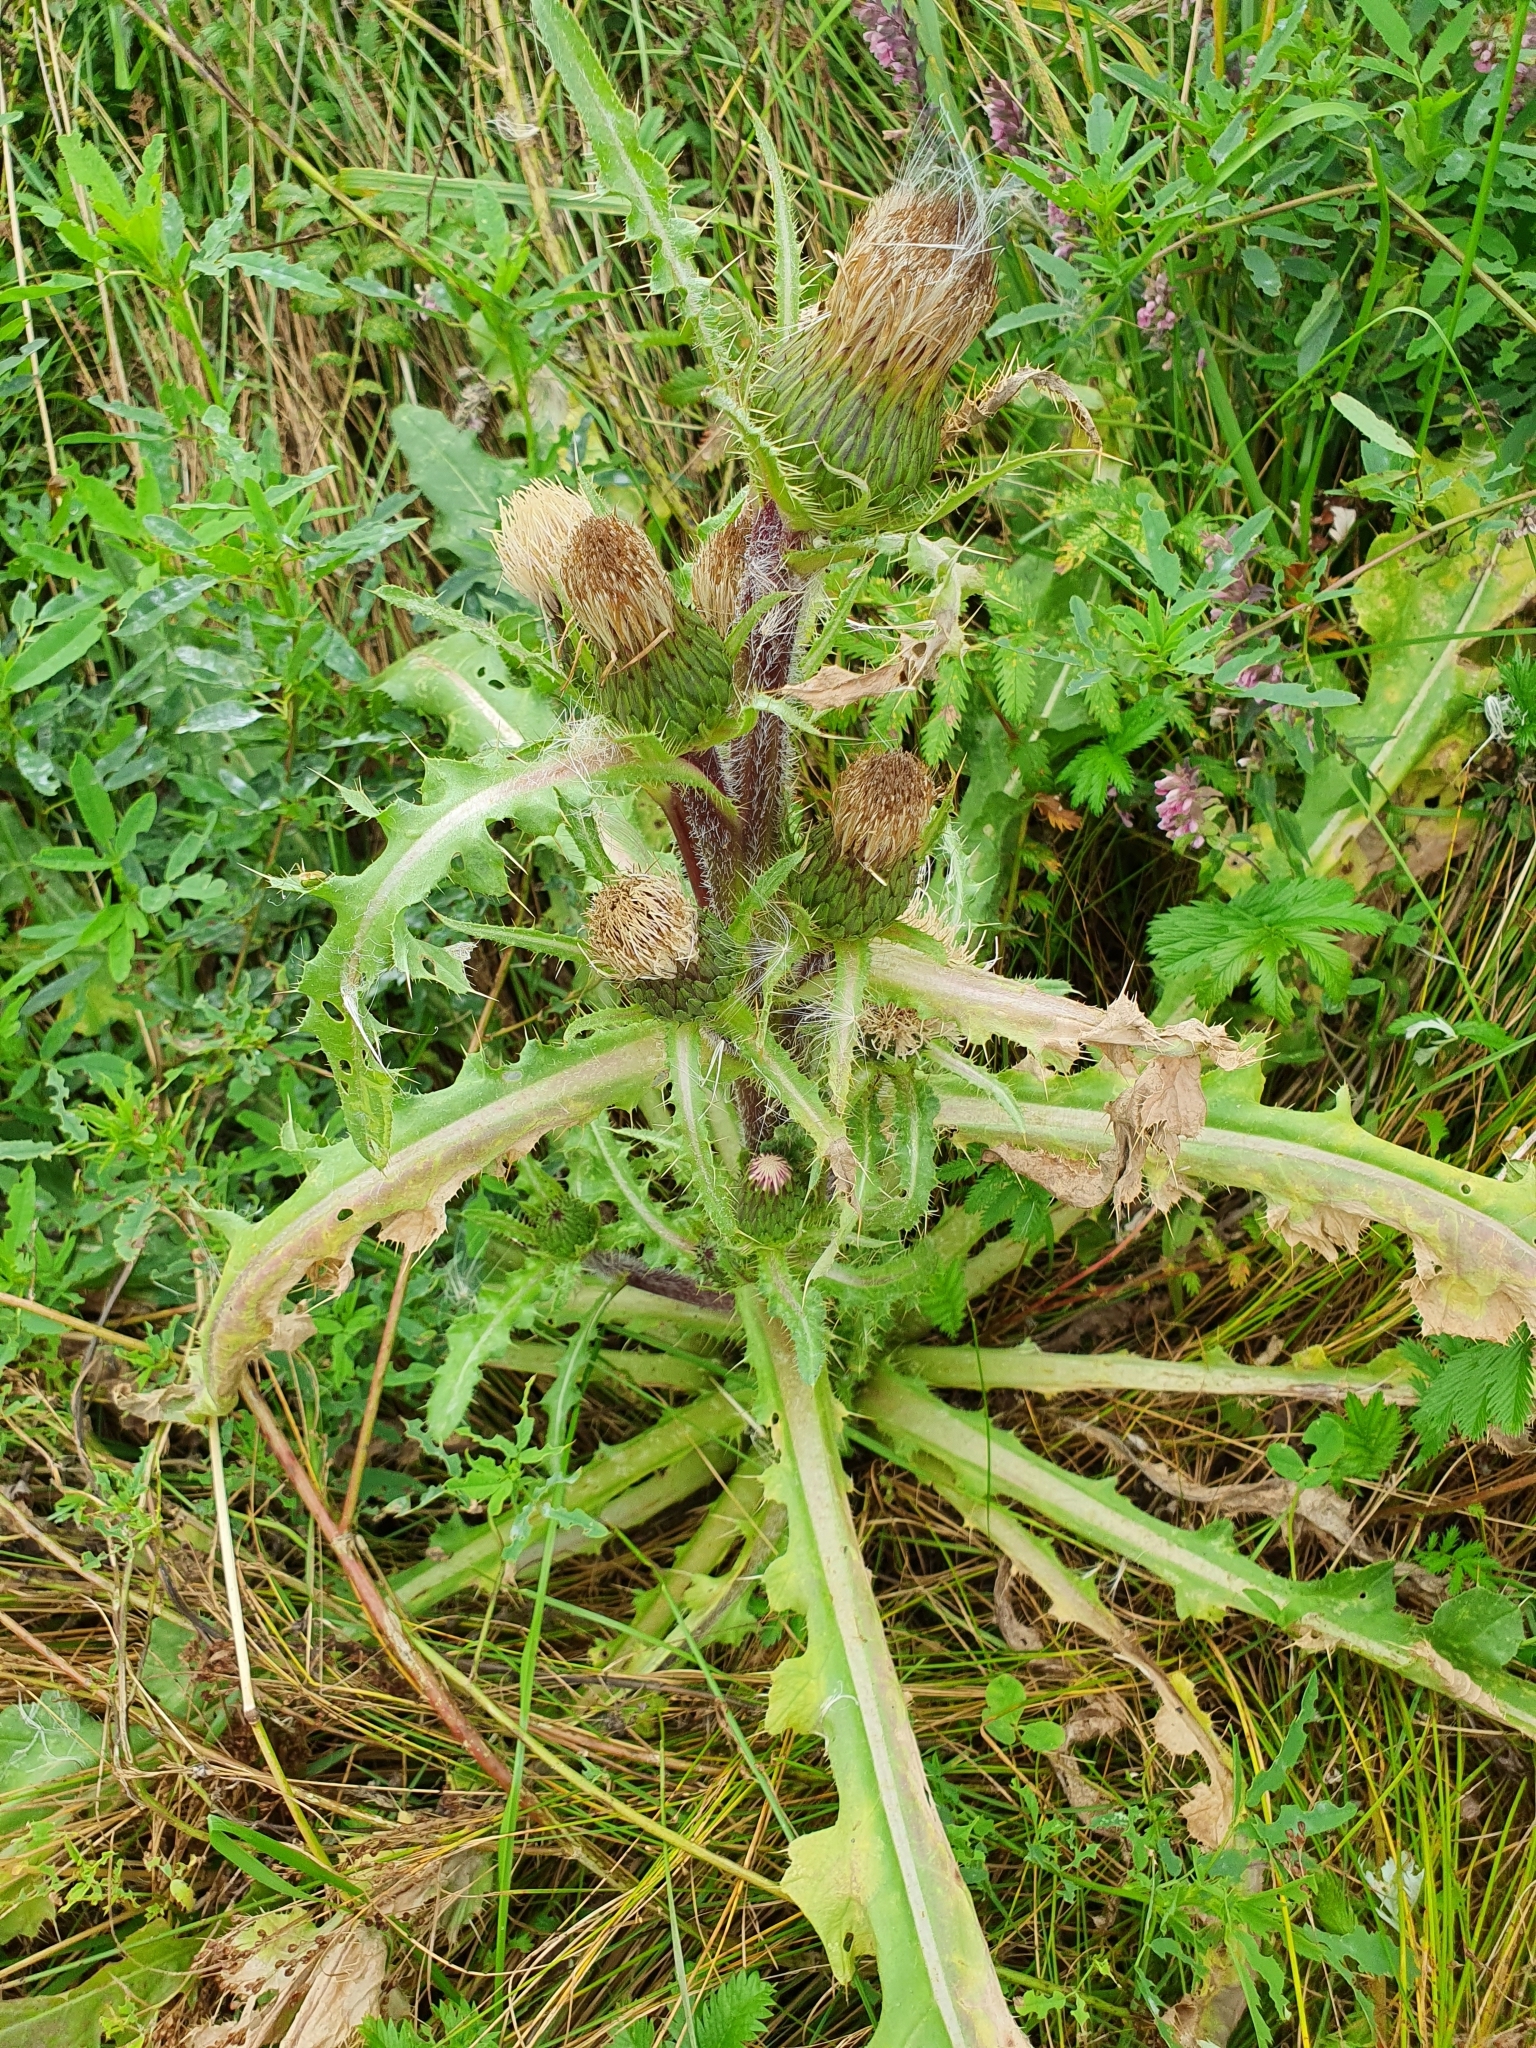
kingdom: Plantae
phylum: Tracheophyta
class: Magnoliopsida
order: Asterales
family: Asteraceae
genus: Cirsium
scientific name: Cirsium esculentum
